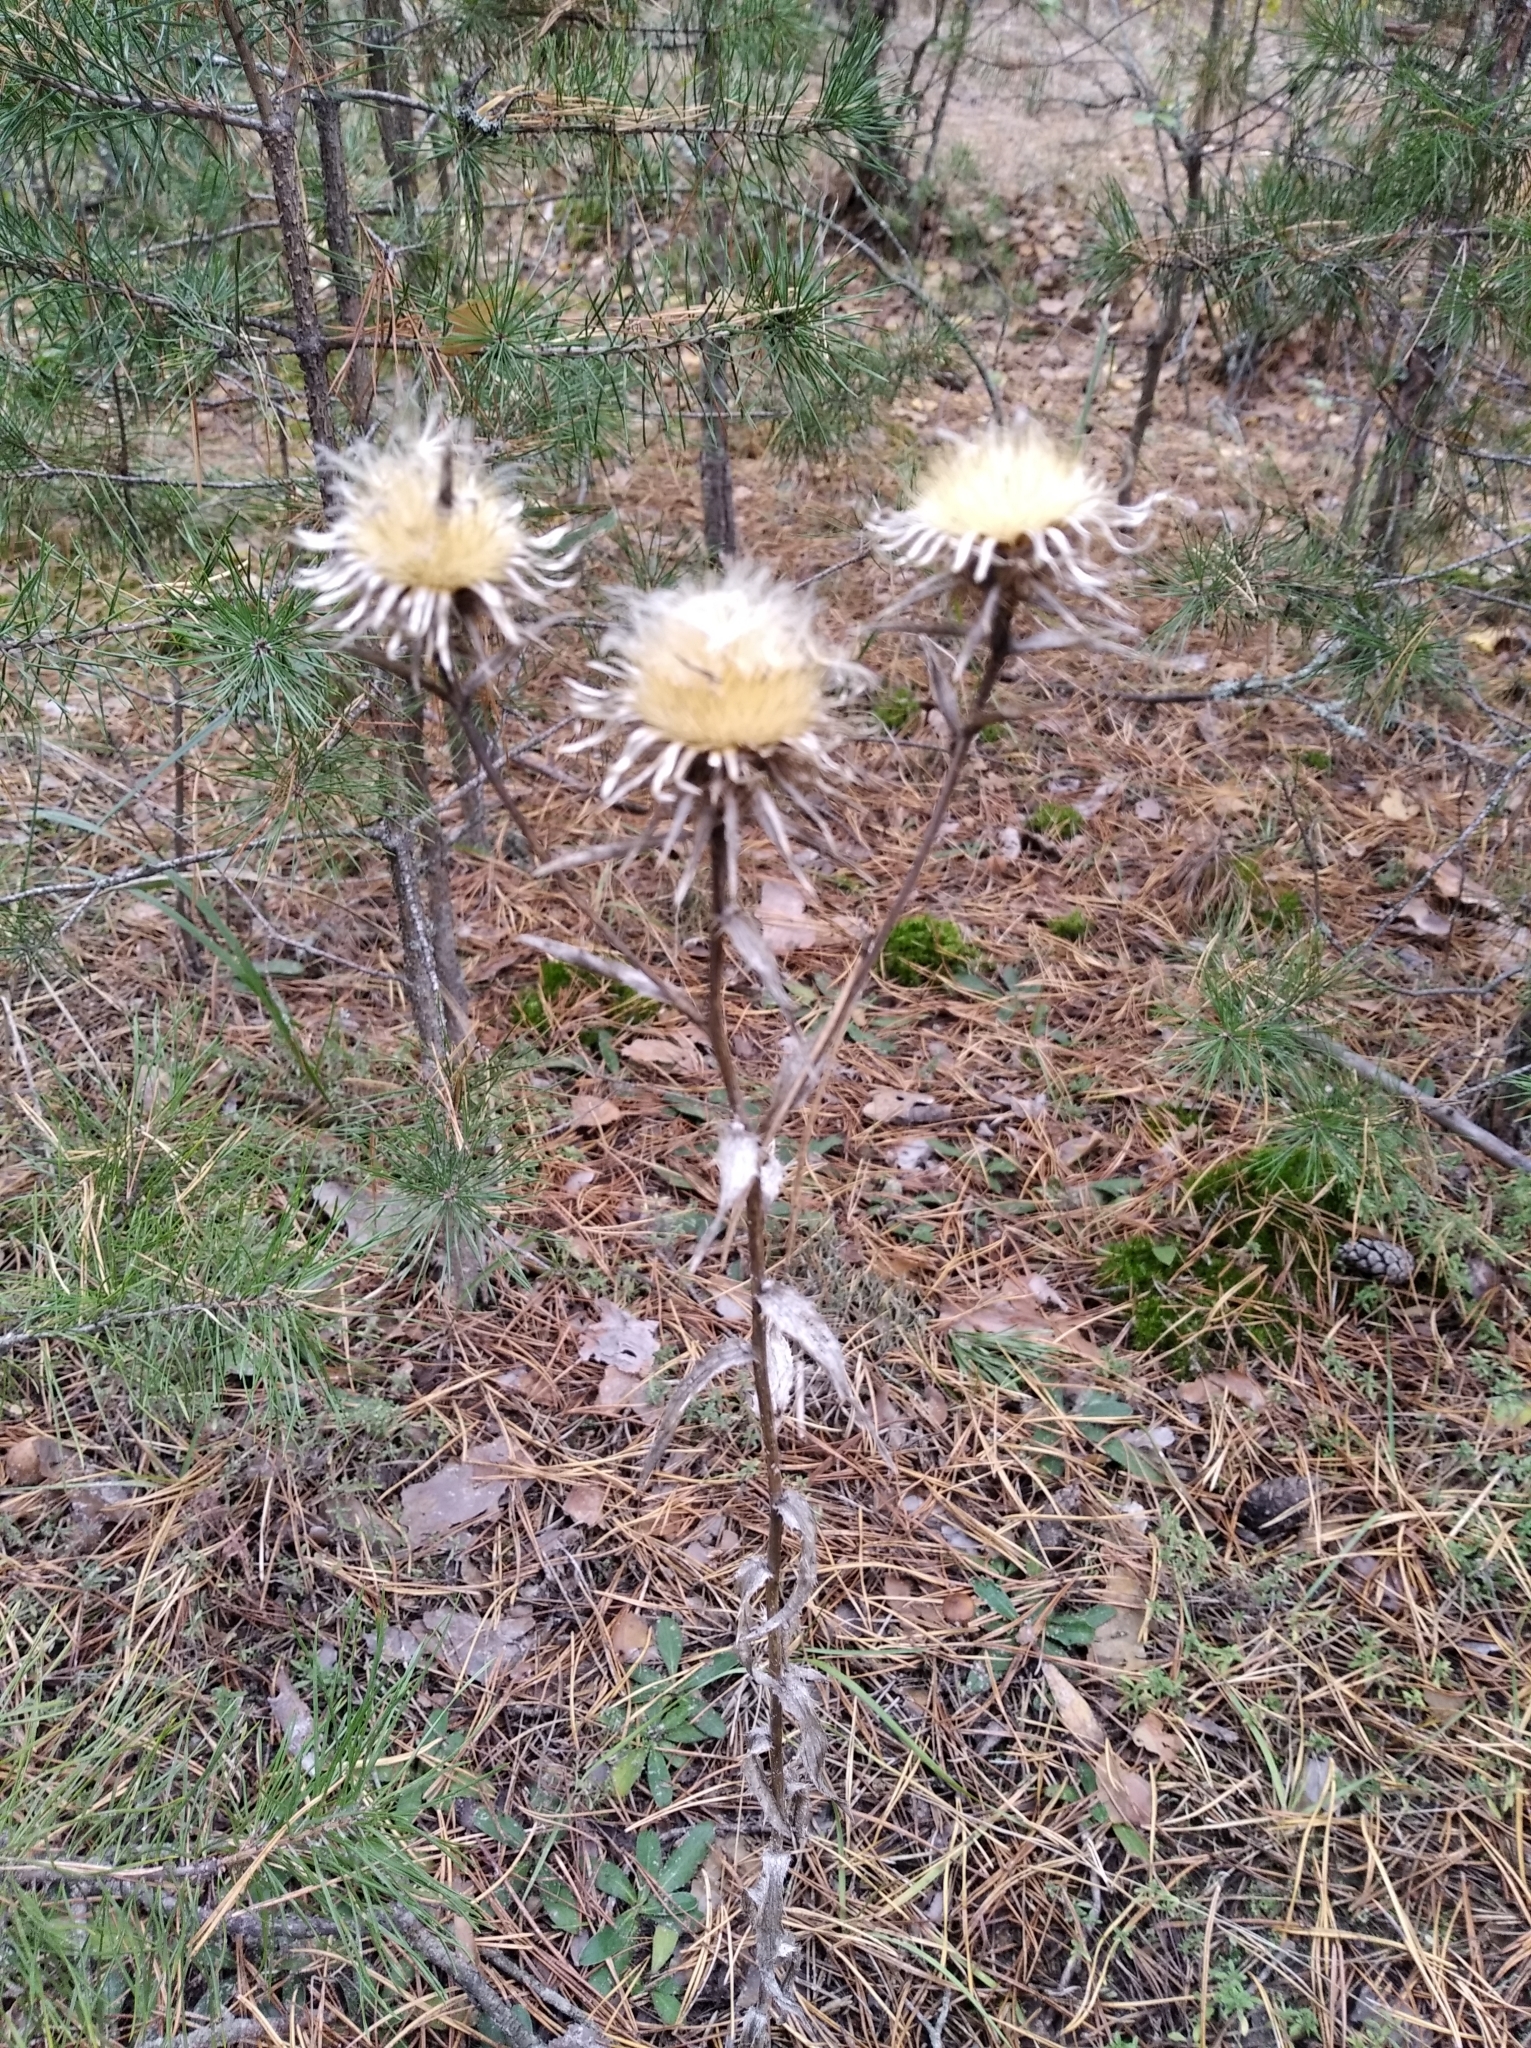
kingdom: Plantae
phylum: Tracheophyta
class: Magnoliopsida
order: Asterales
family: Asteraceae
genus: Carlina
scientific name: Carlina biebersteinii
